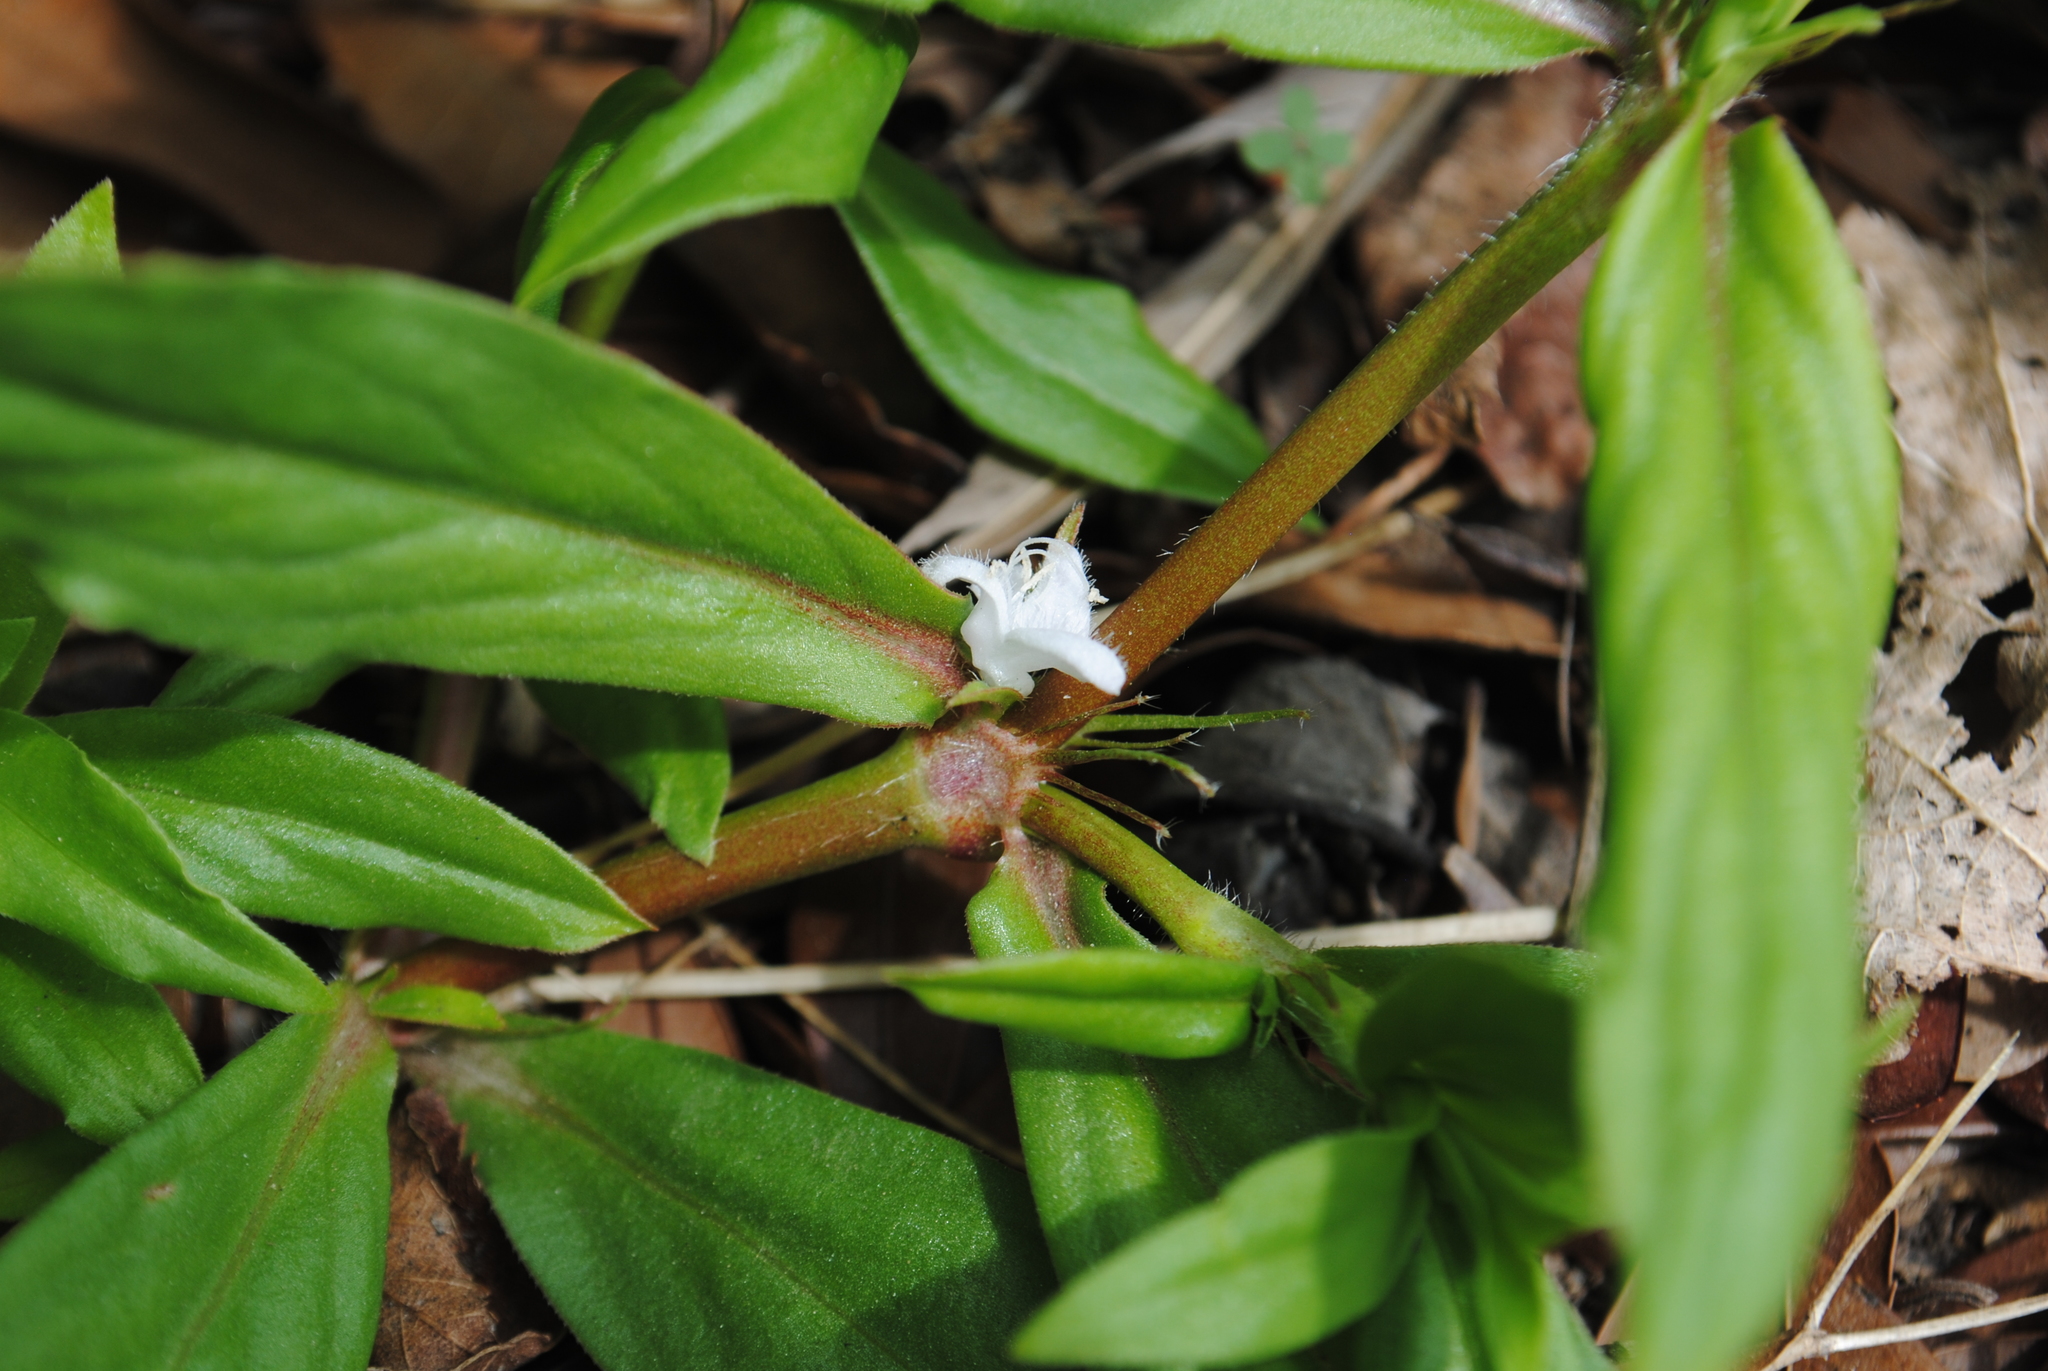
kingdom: Plantae
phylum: Tracheophyta
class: Magnoliopsida
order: Gentianales
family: Rubiaceae
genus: Diodia
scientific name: Diodia virginiana
